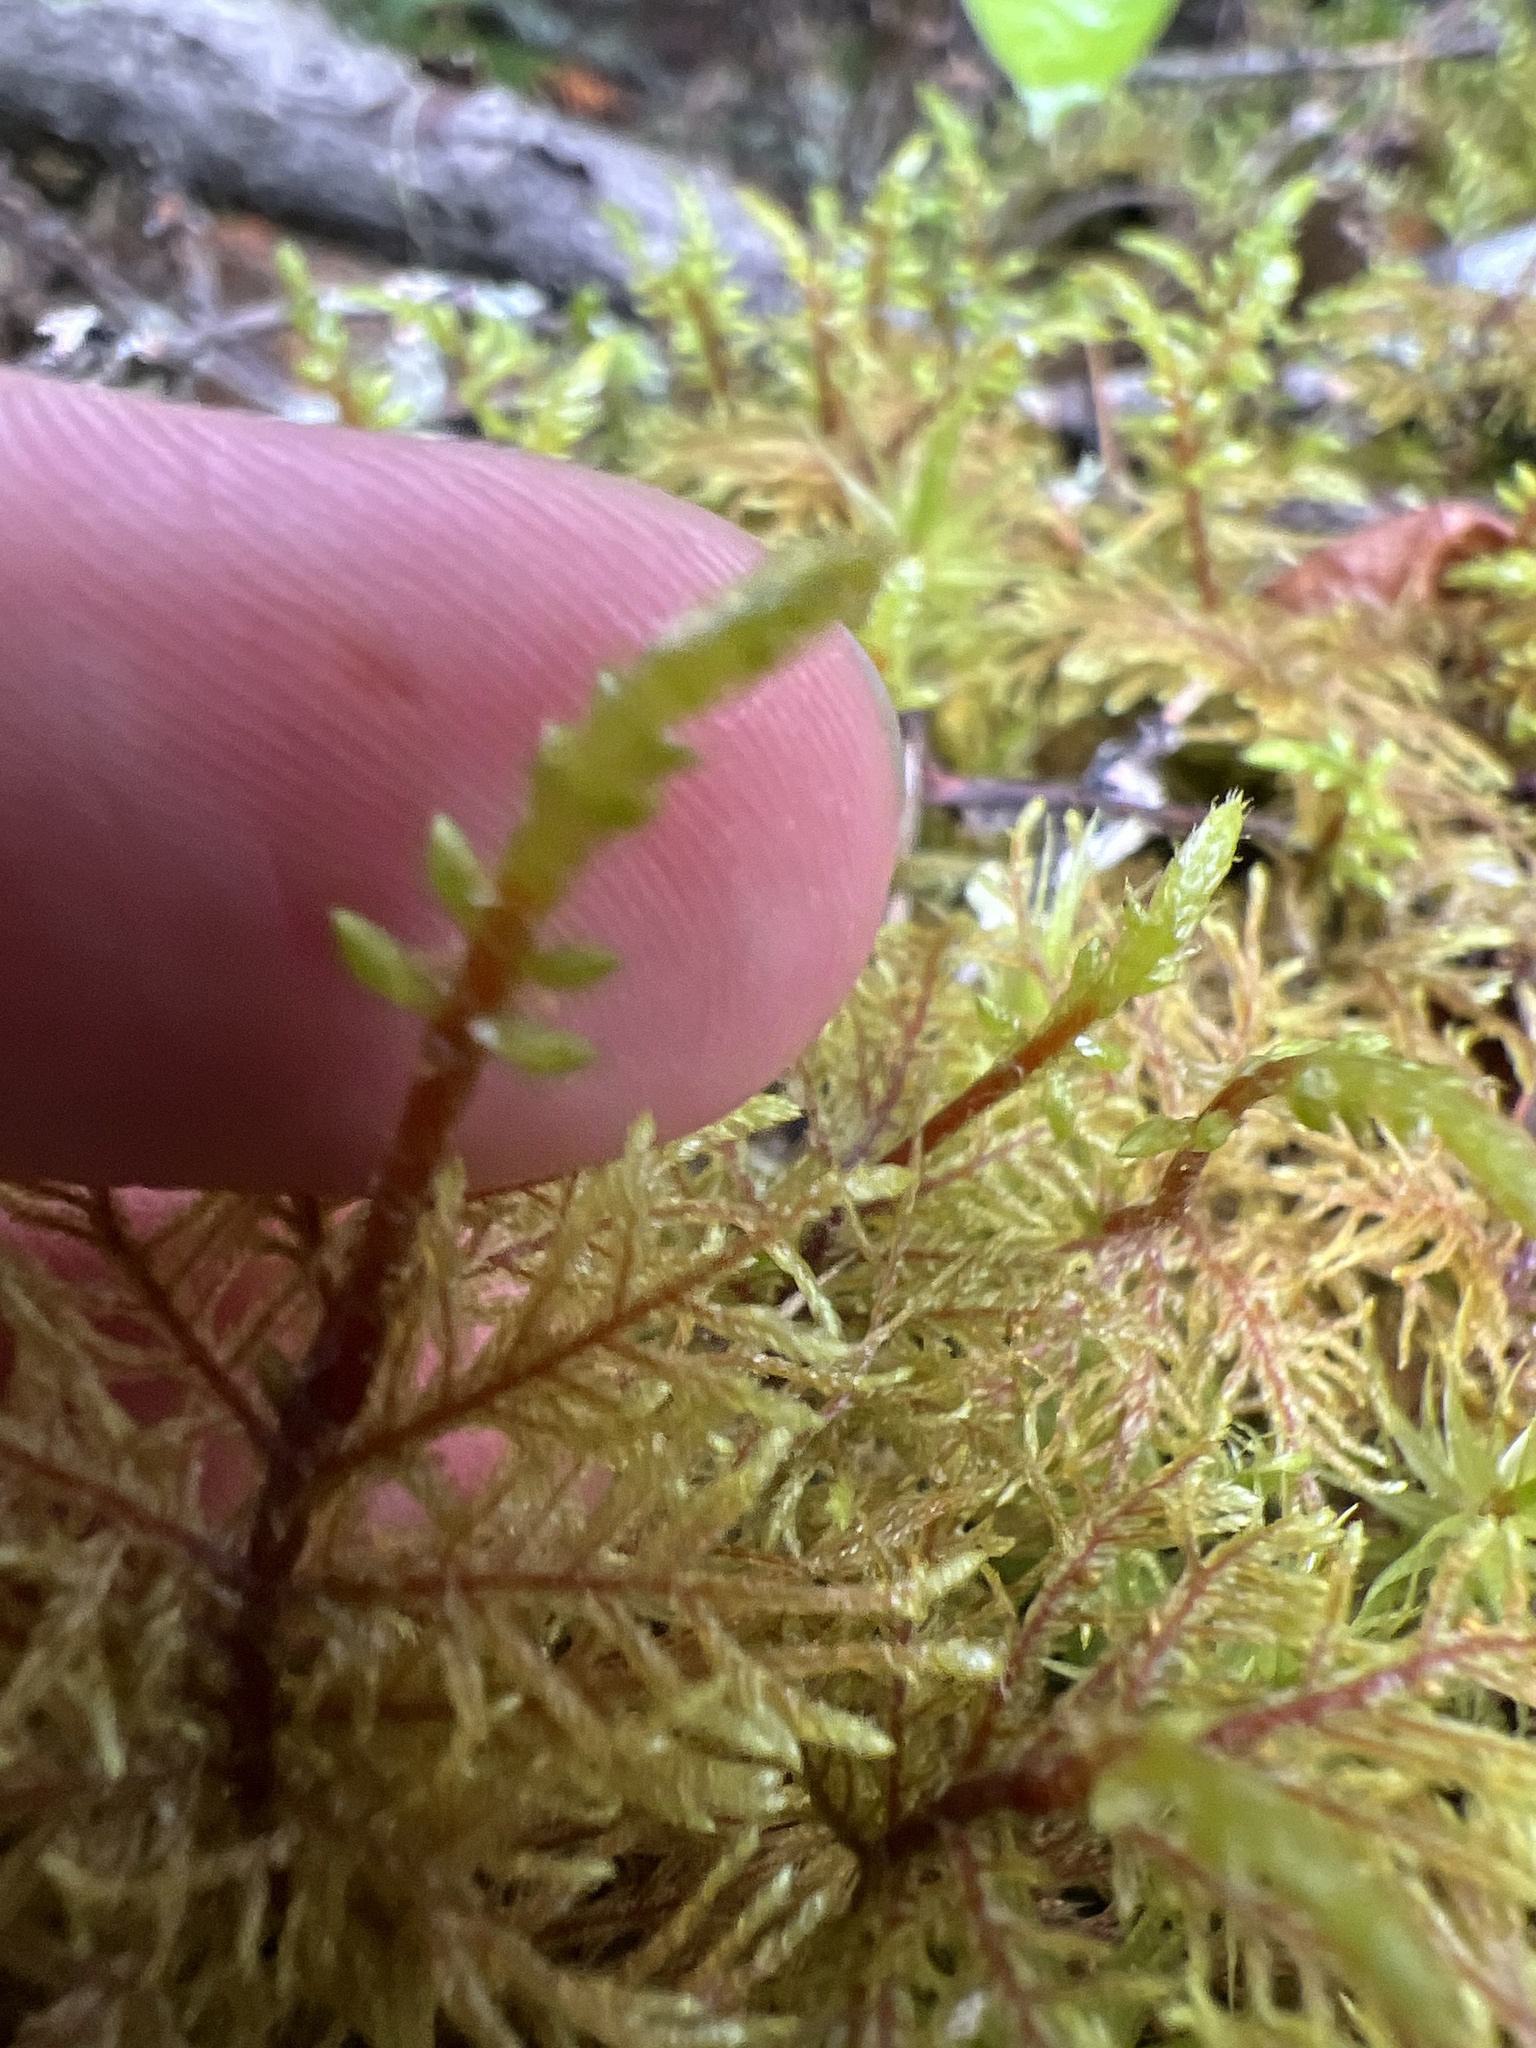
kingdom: Plantae
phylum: Bryophyta
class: Bryopsida
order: Hypnales
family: Hylocomiaceae
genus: Hylocomium
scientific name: Hylocomium splendens
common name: Stairstep moss
